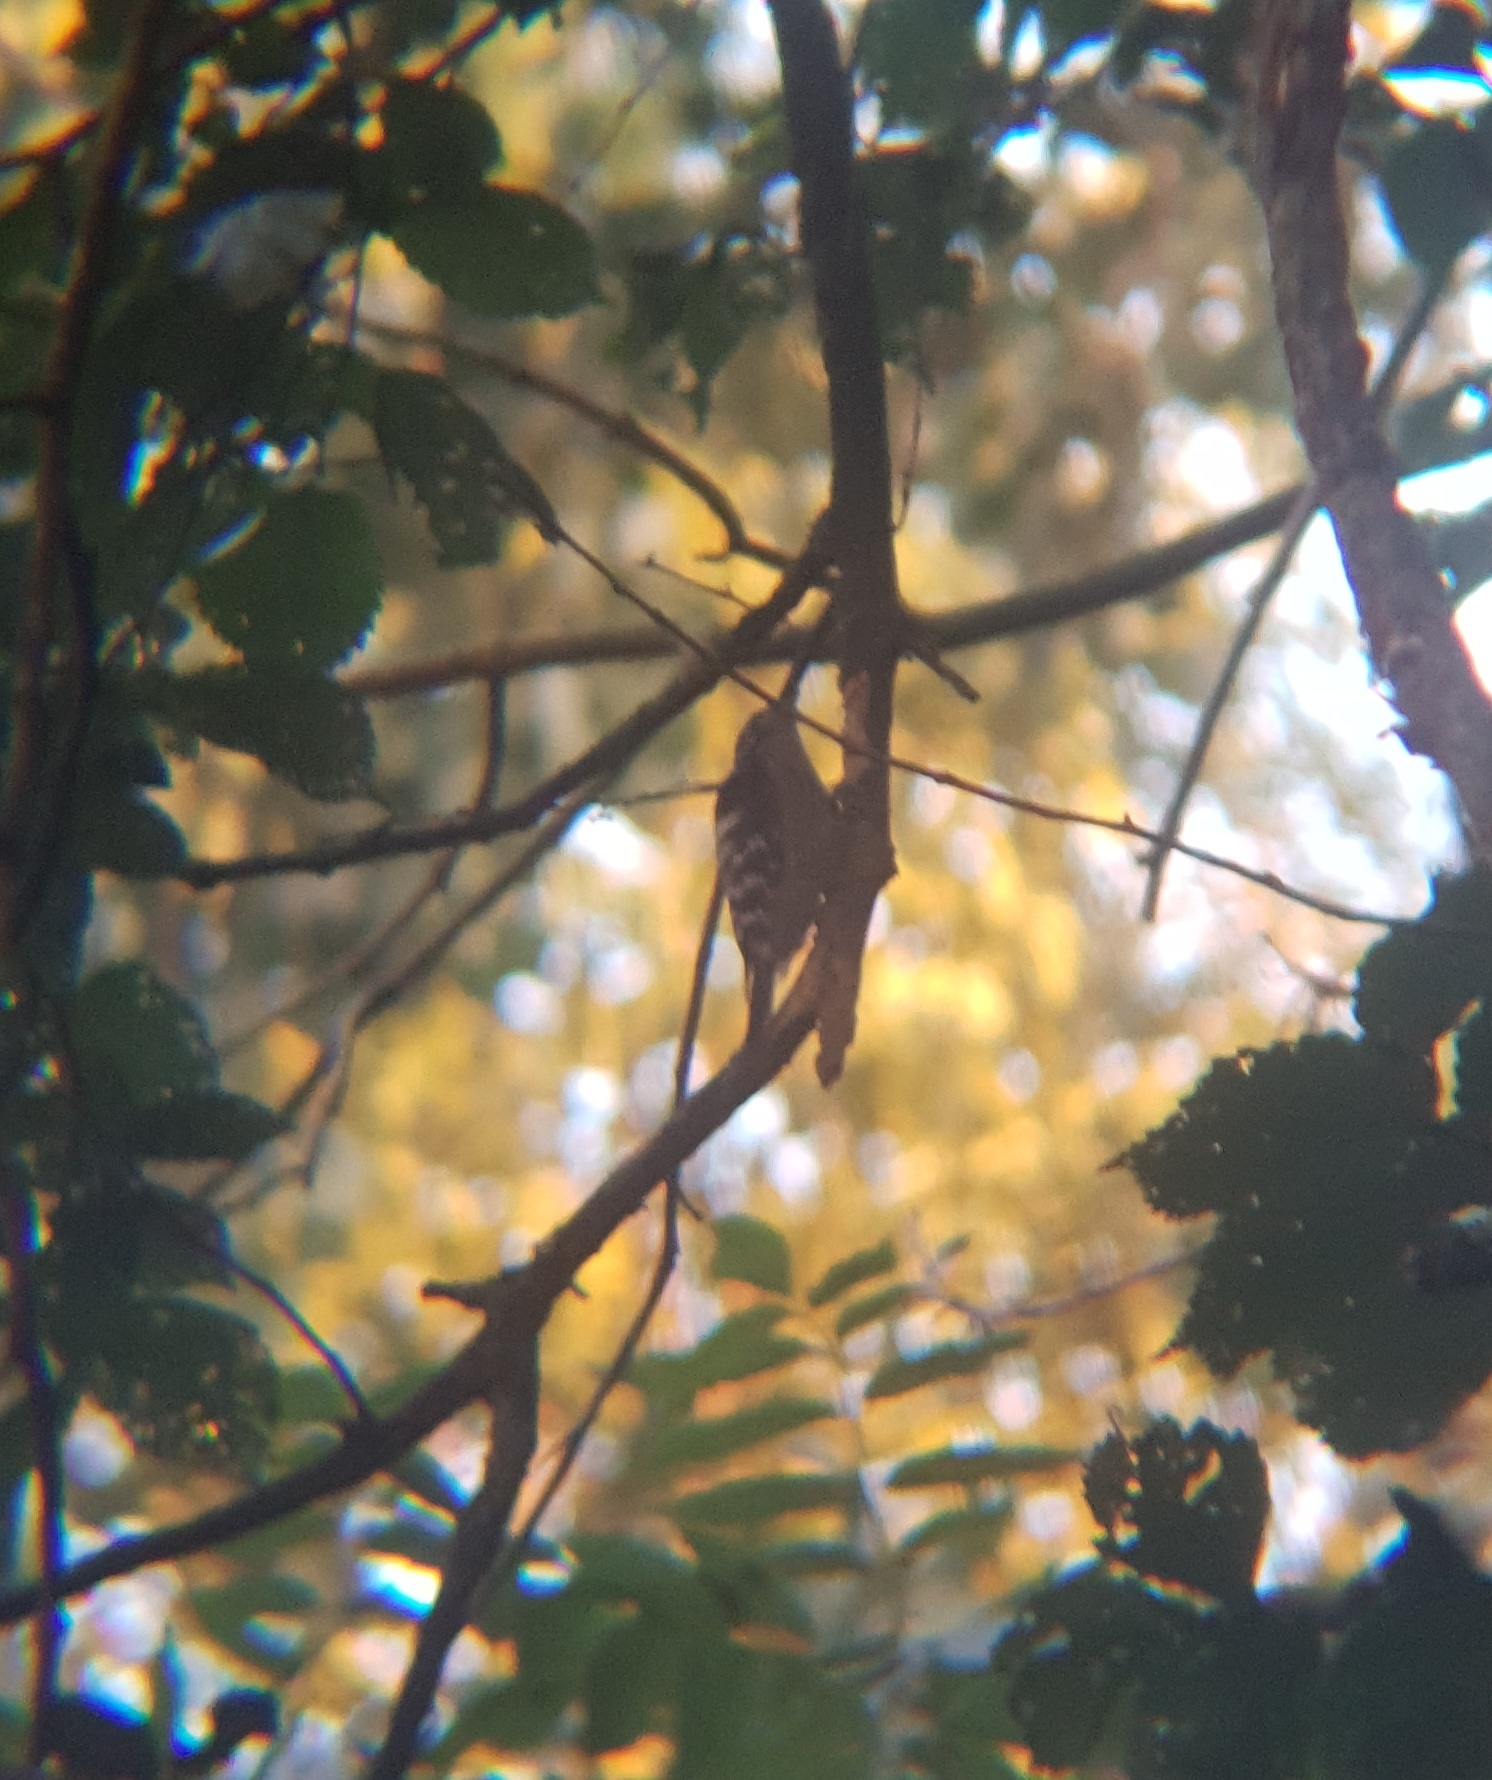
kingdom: Animalia
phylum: Chordata
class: Aves
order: Piciformes
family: Picidae
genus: Dryobates
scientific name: Dryobates minor
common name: Lesser spotted woodpecker
